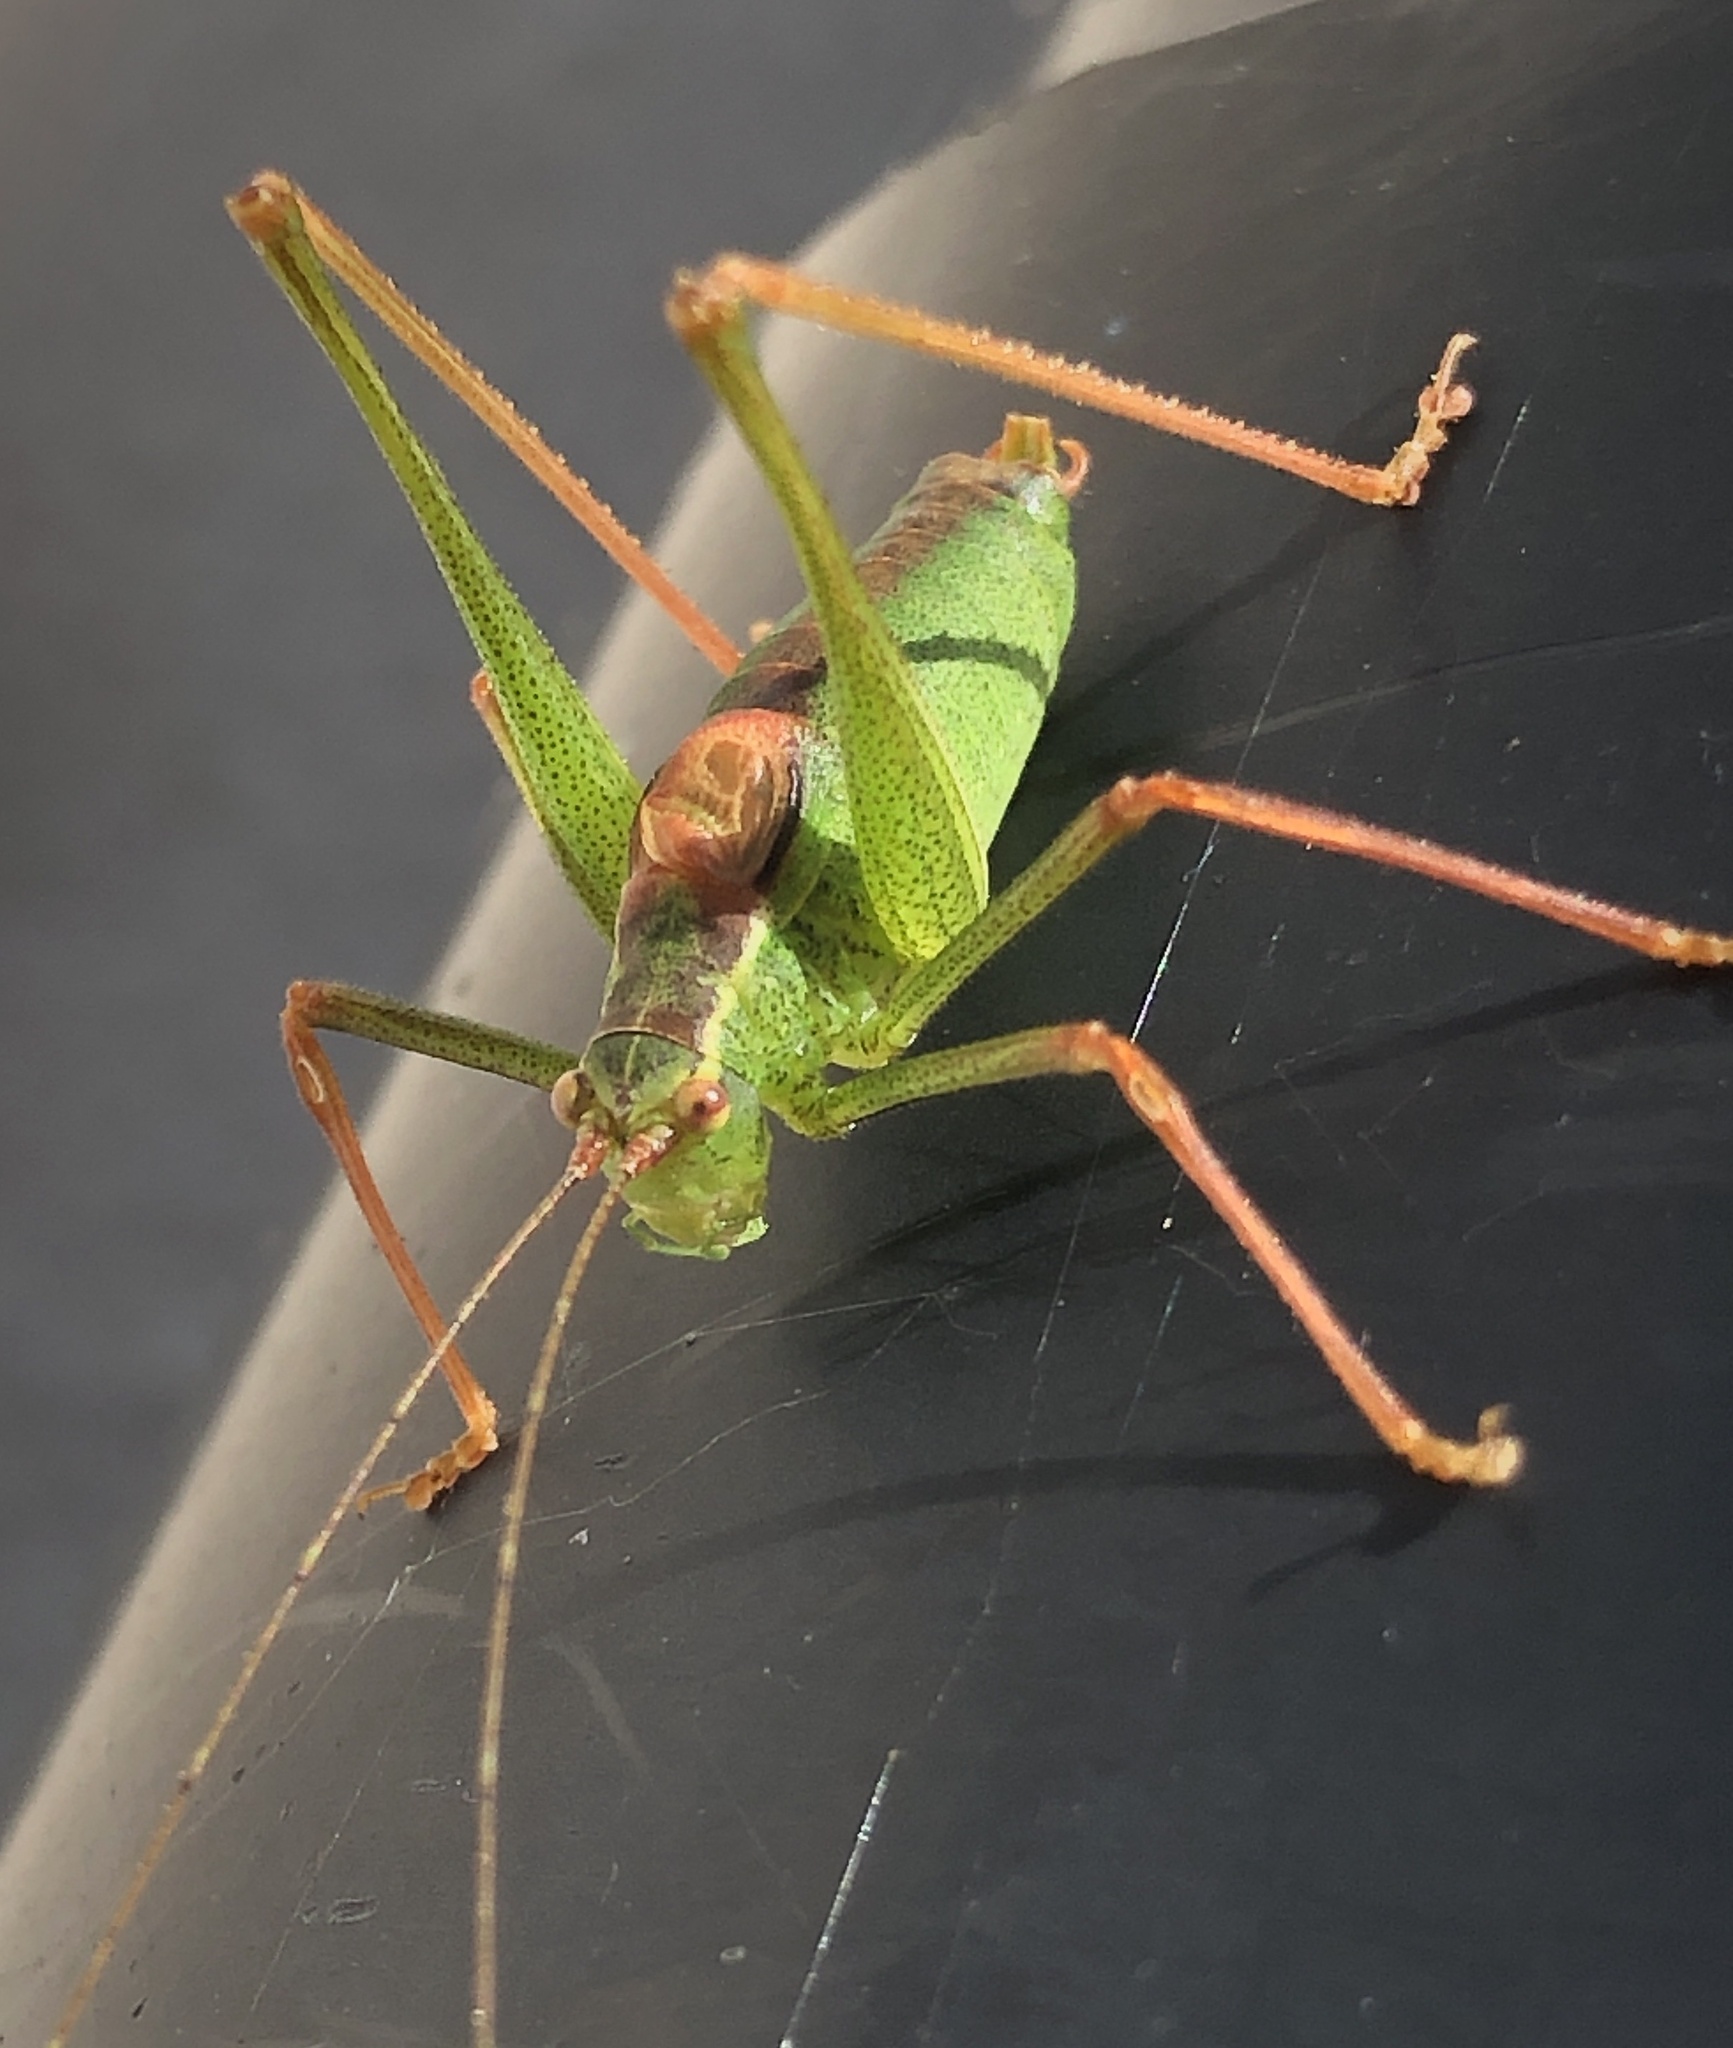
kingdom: Animalia
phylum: Arthropoda
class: Insecta
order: Orthoptera
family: Tettigoniidae
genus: Leptophyes
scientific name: Leptophyes punctatissima
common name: Speckled bush-cricket
